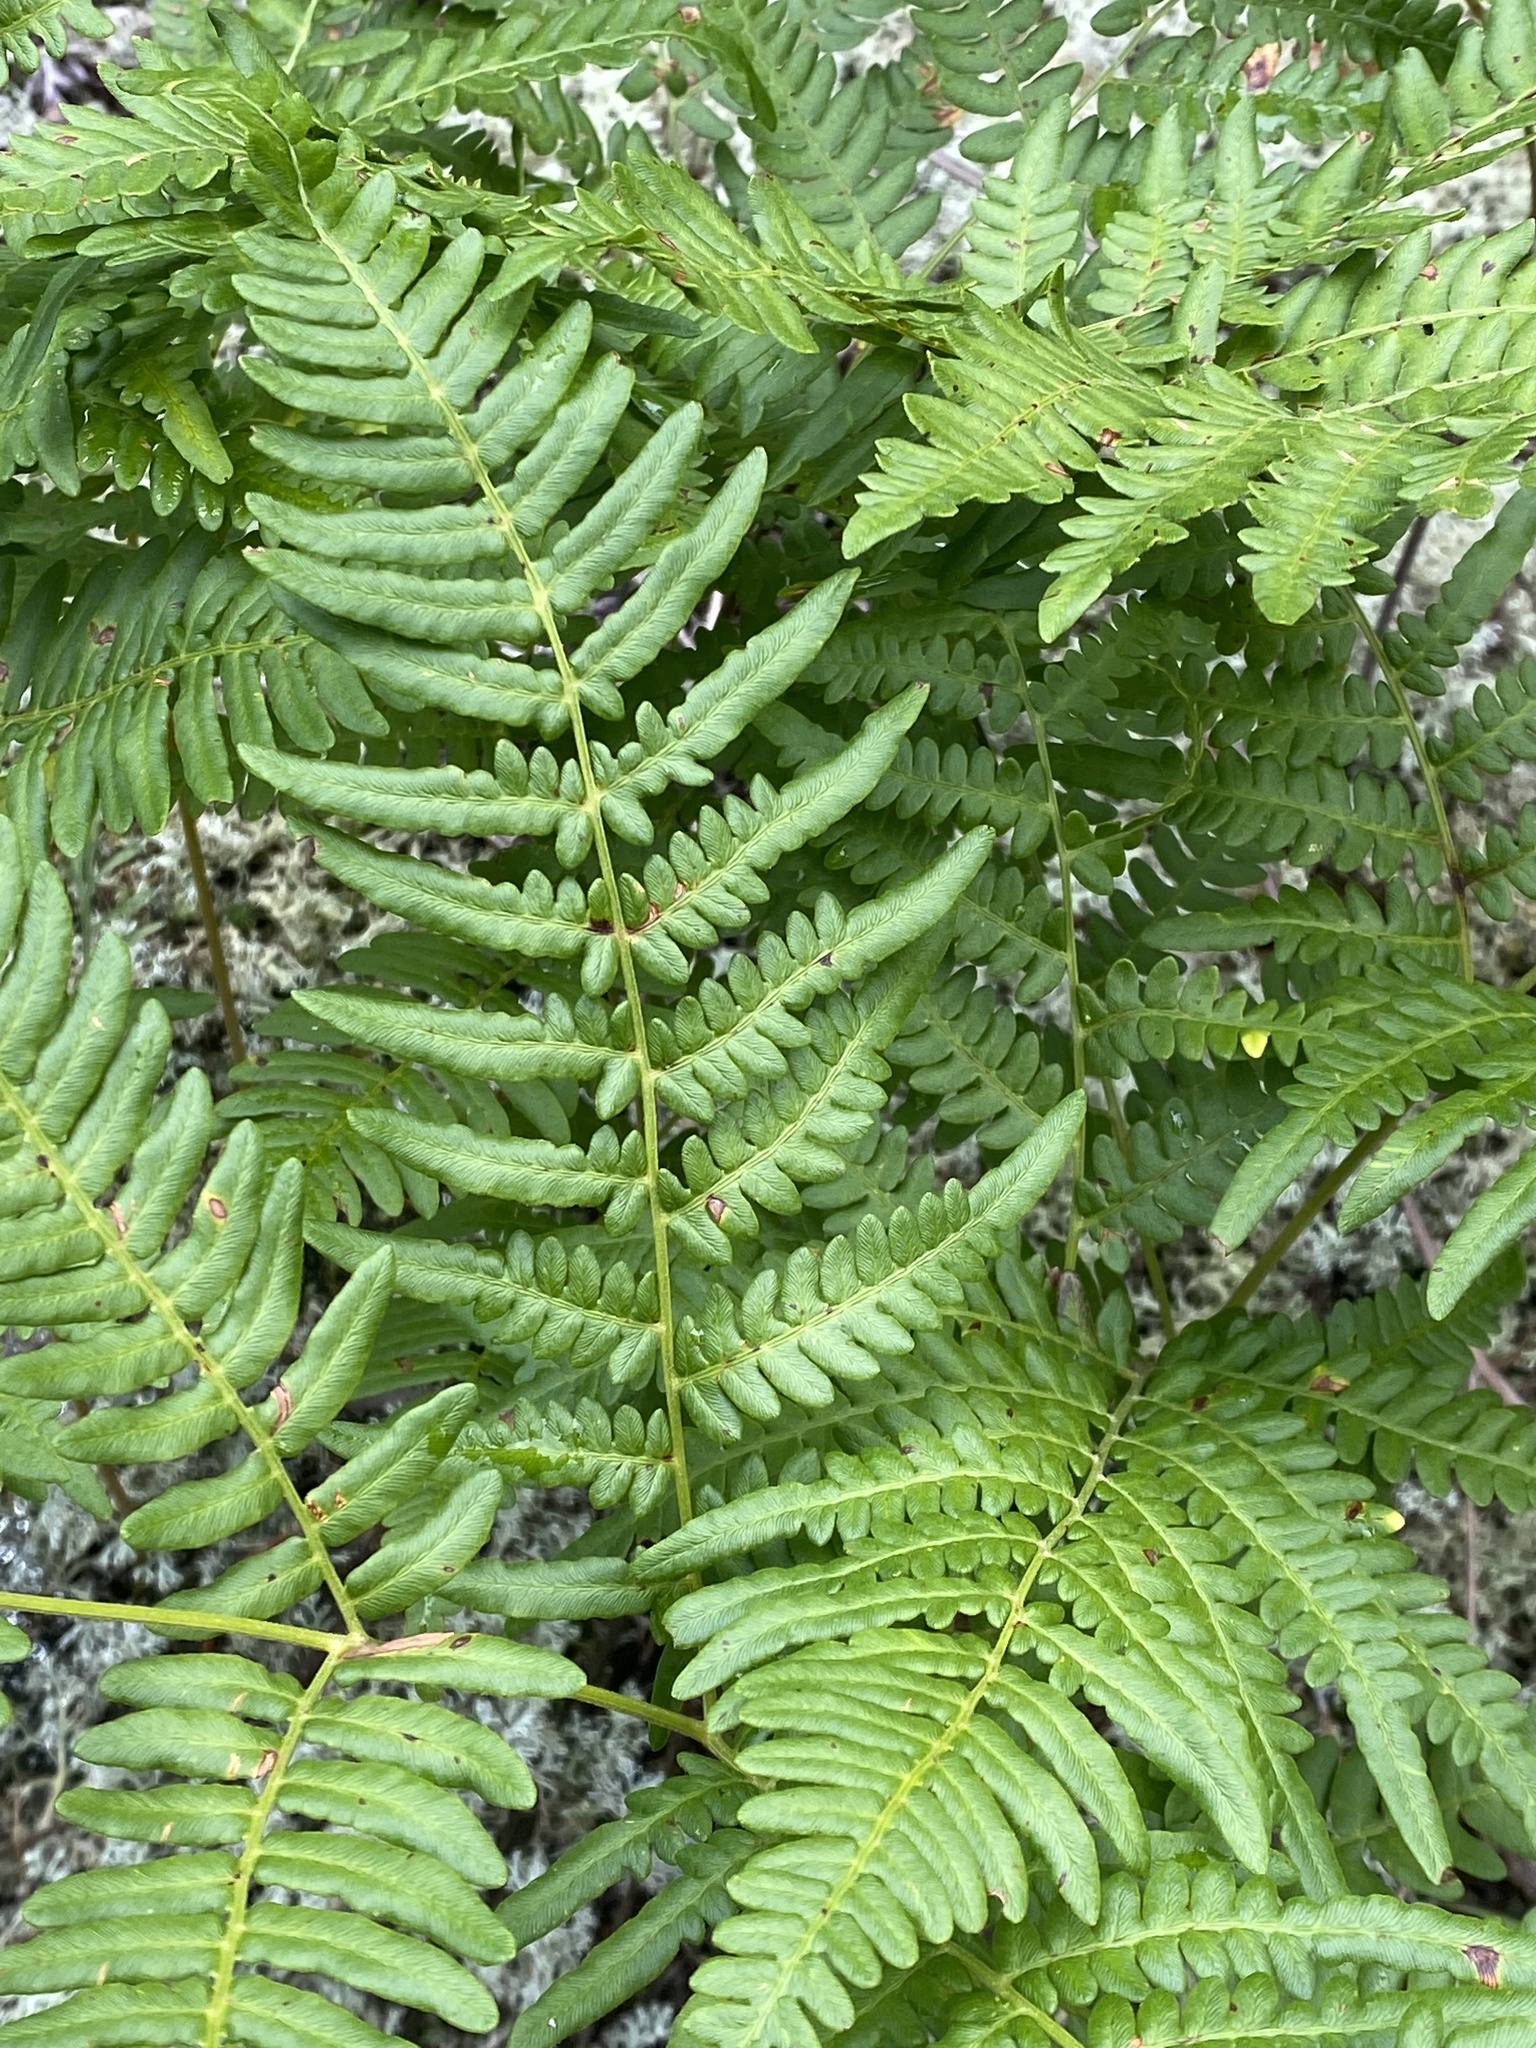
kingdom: Plantae
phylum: Tracheophyta
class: Polypodiopsida
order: Polypodiales
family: Dennstaedtiaceae
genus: Pteridium
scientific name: Pteridium aquilinum
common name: Bracken
